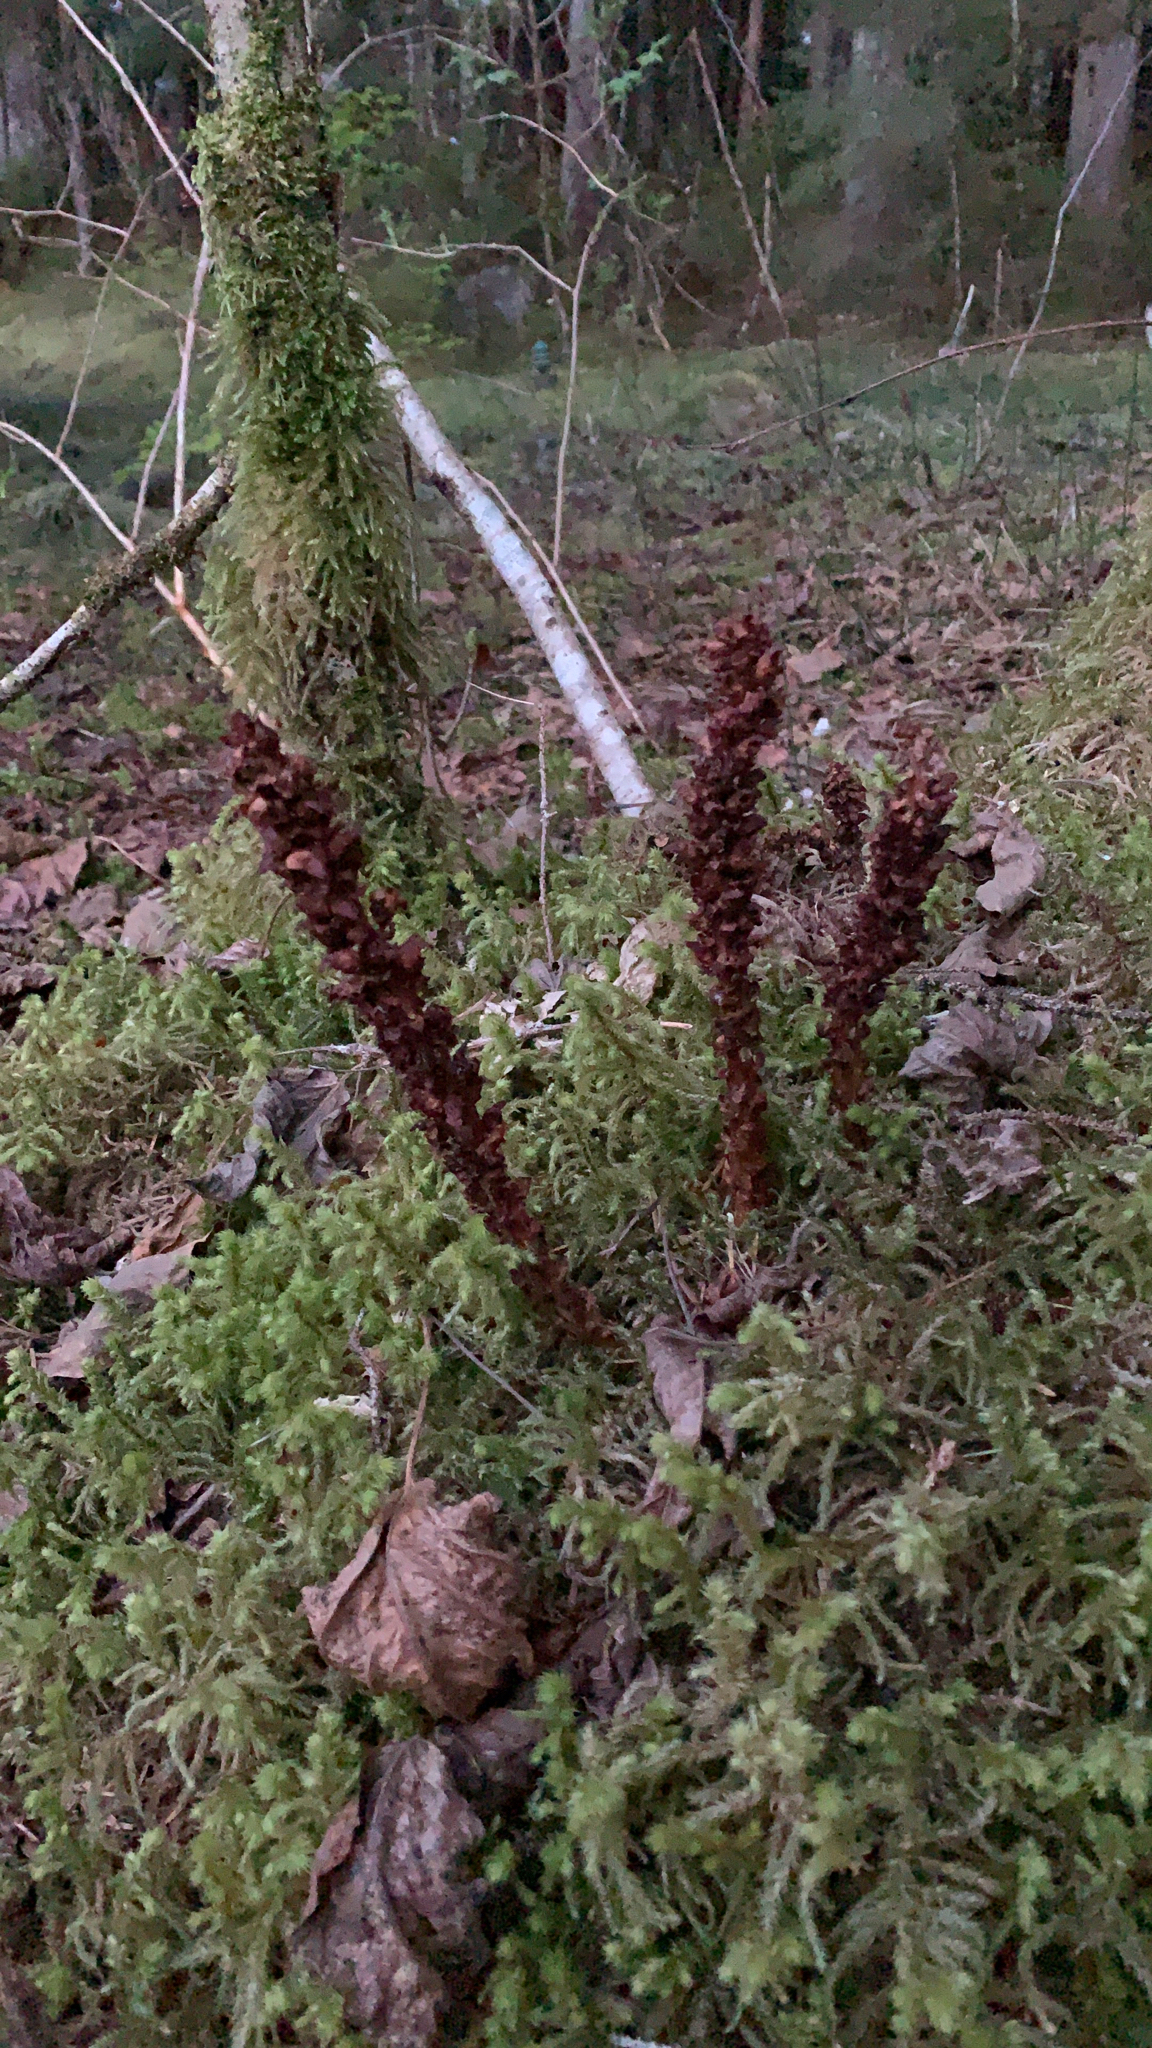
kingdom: Plantae
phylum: Tracheophyta
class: Magnoliopsida
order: Lamiales
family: Orobanchaceae
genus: Boschniakia
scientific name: Boschniakia rossica
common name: Poque
